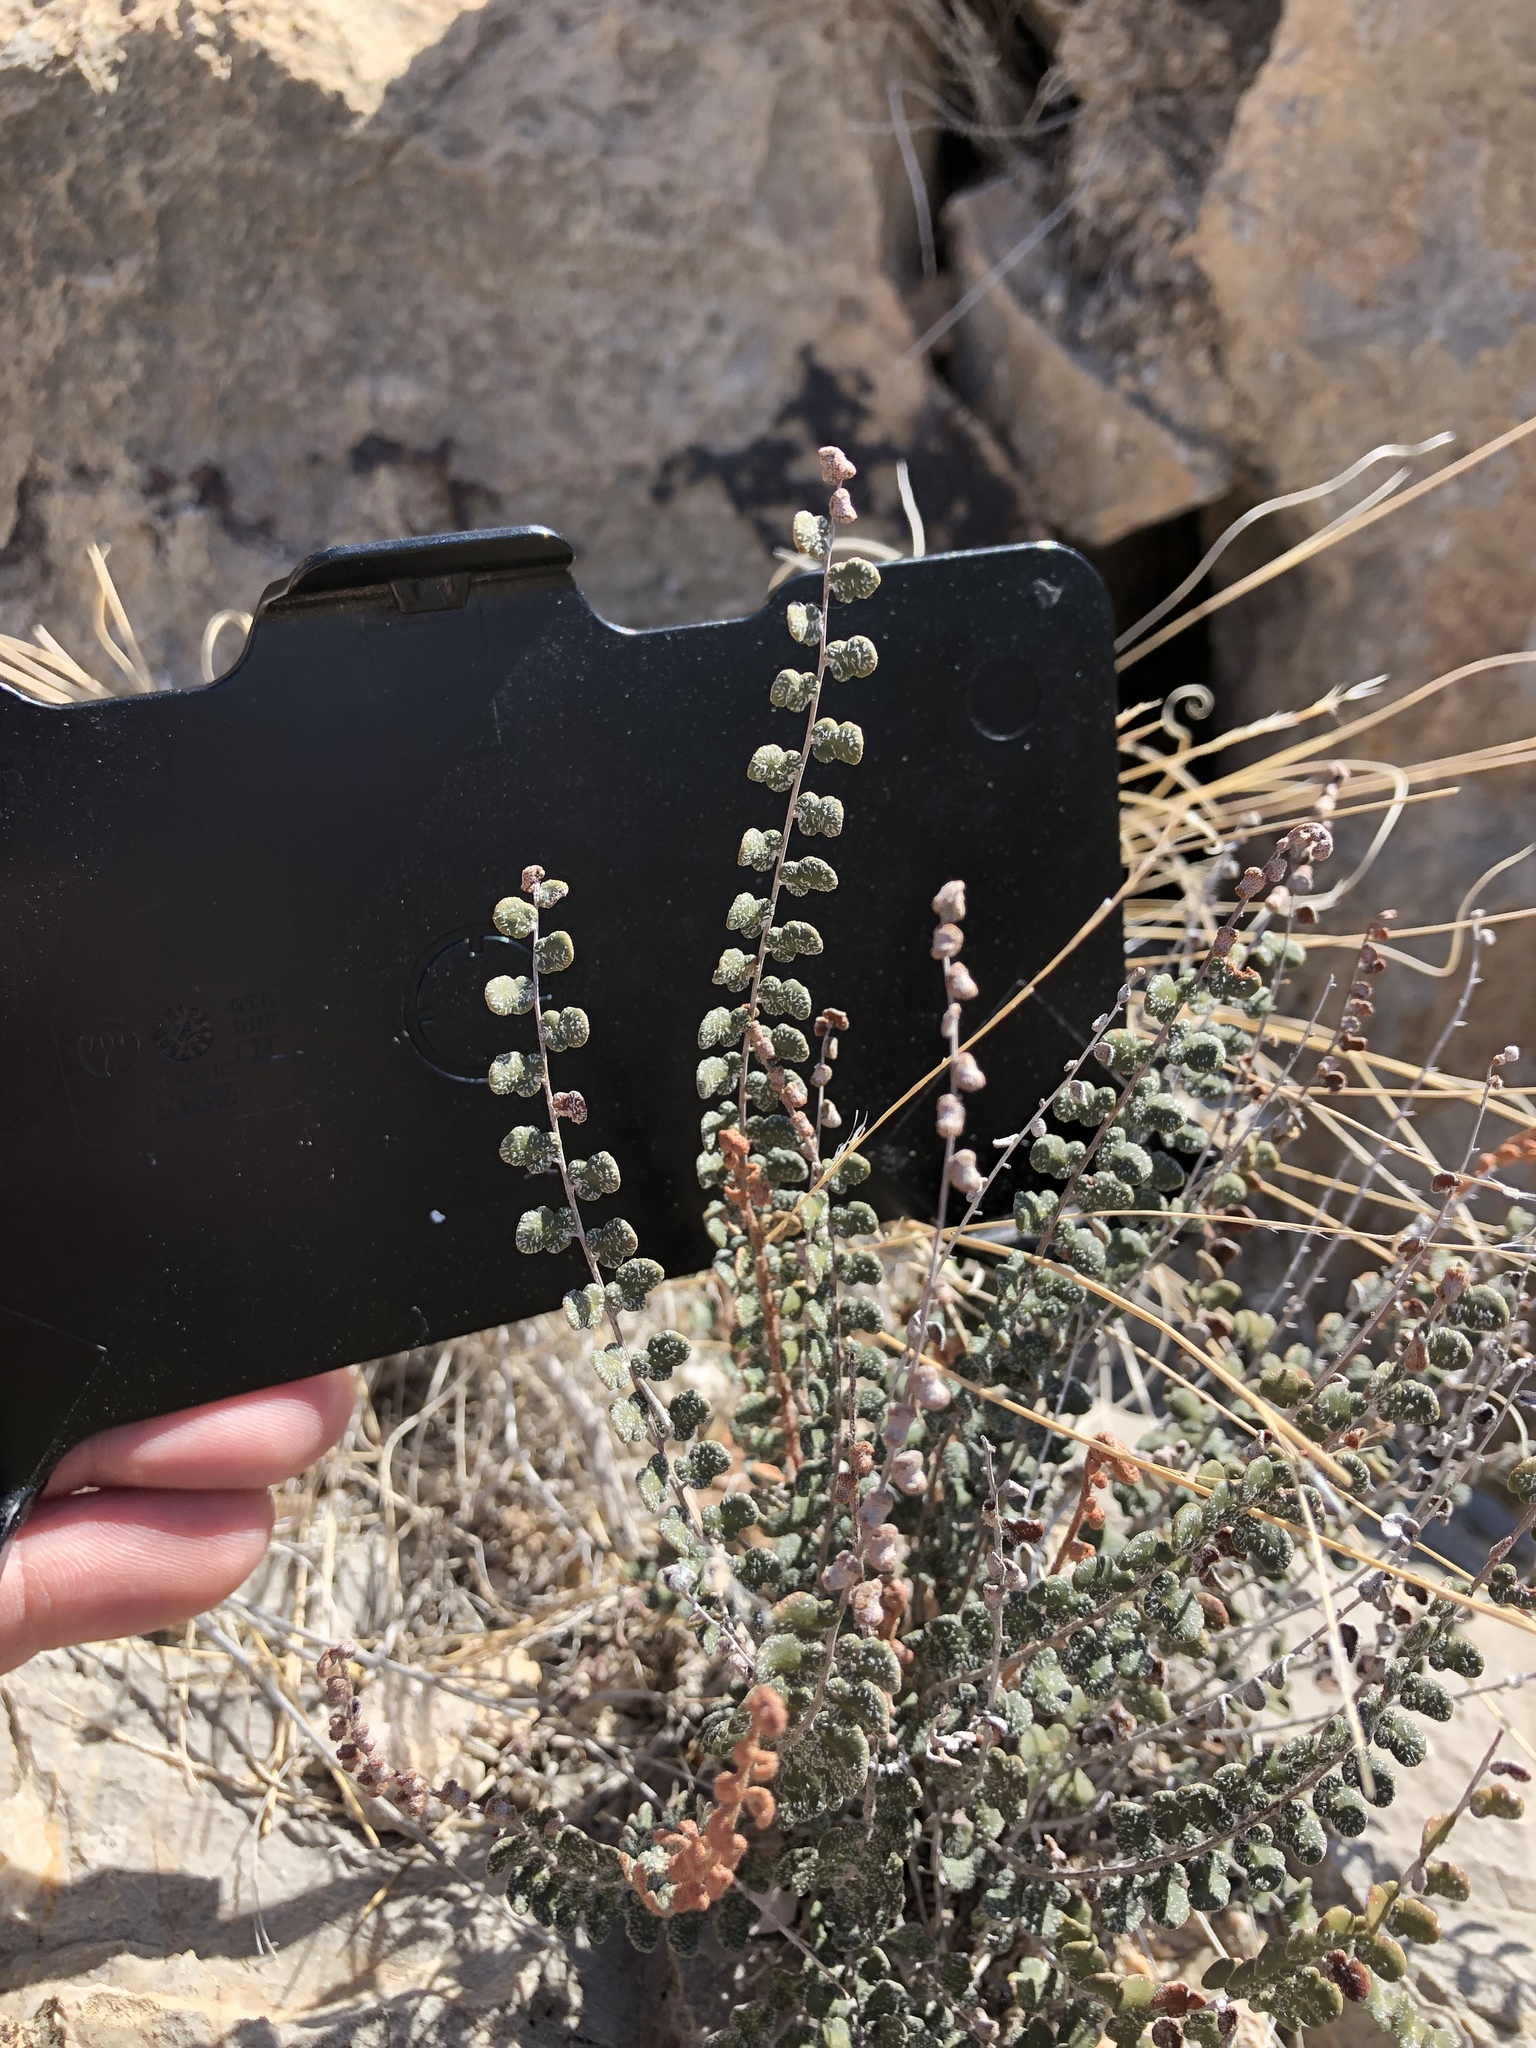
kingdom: Plantae
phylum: Tracheophyta
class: Polypodiopsida
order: Polypodiales
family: Pteridaceae
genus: Astrolepis
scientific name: Astrolepis cochisensis
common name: Scaly cloak fern
